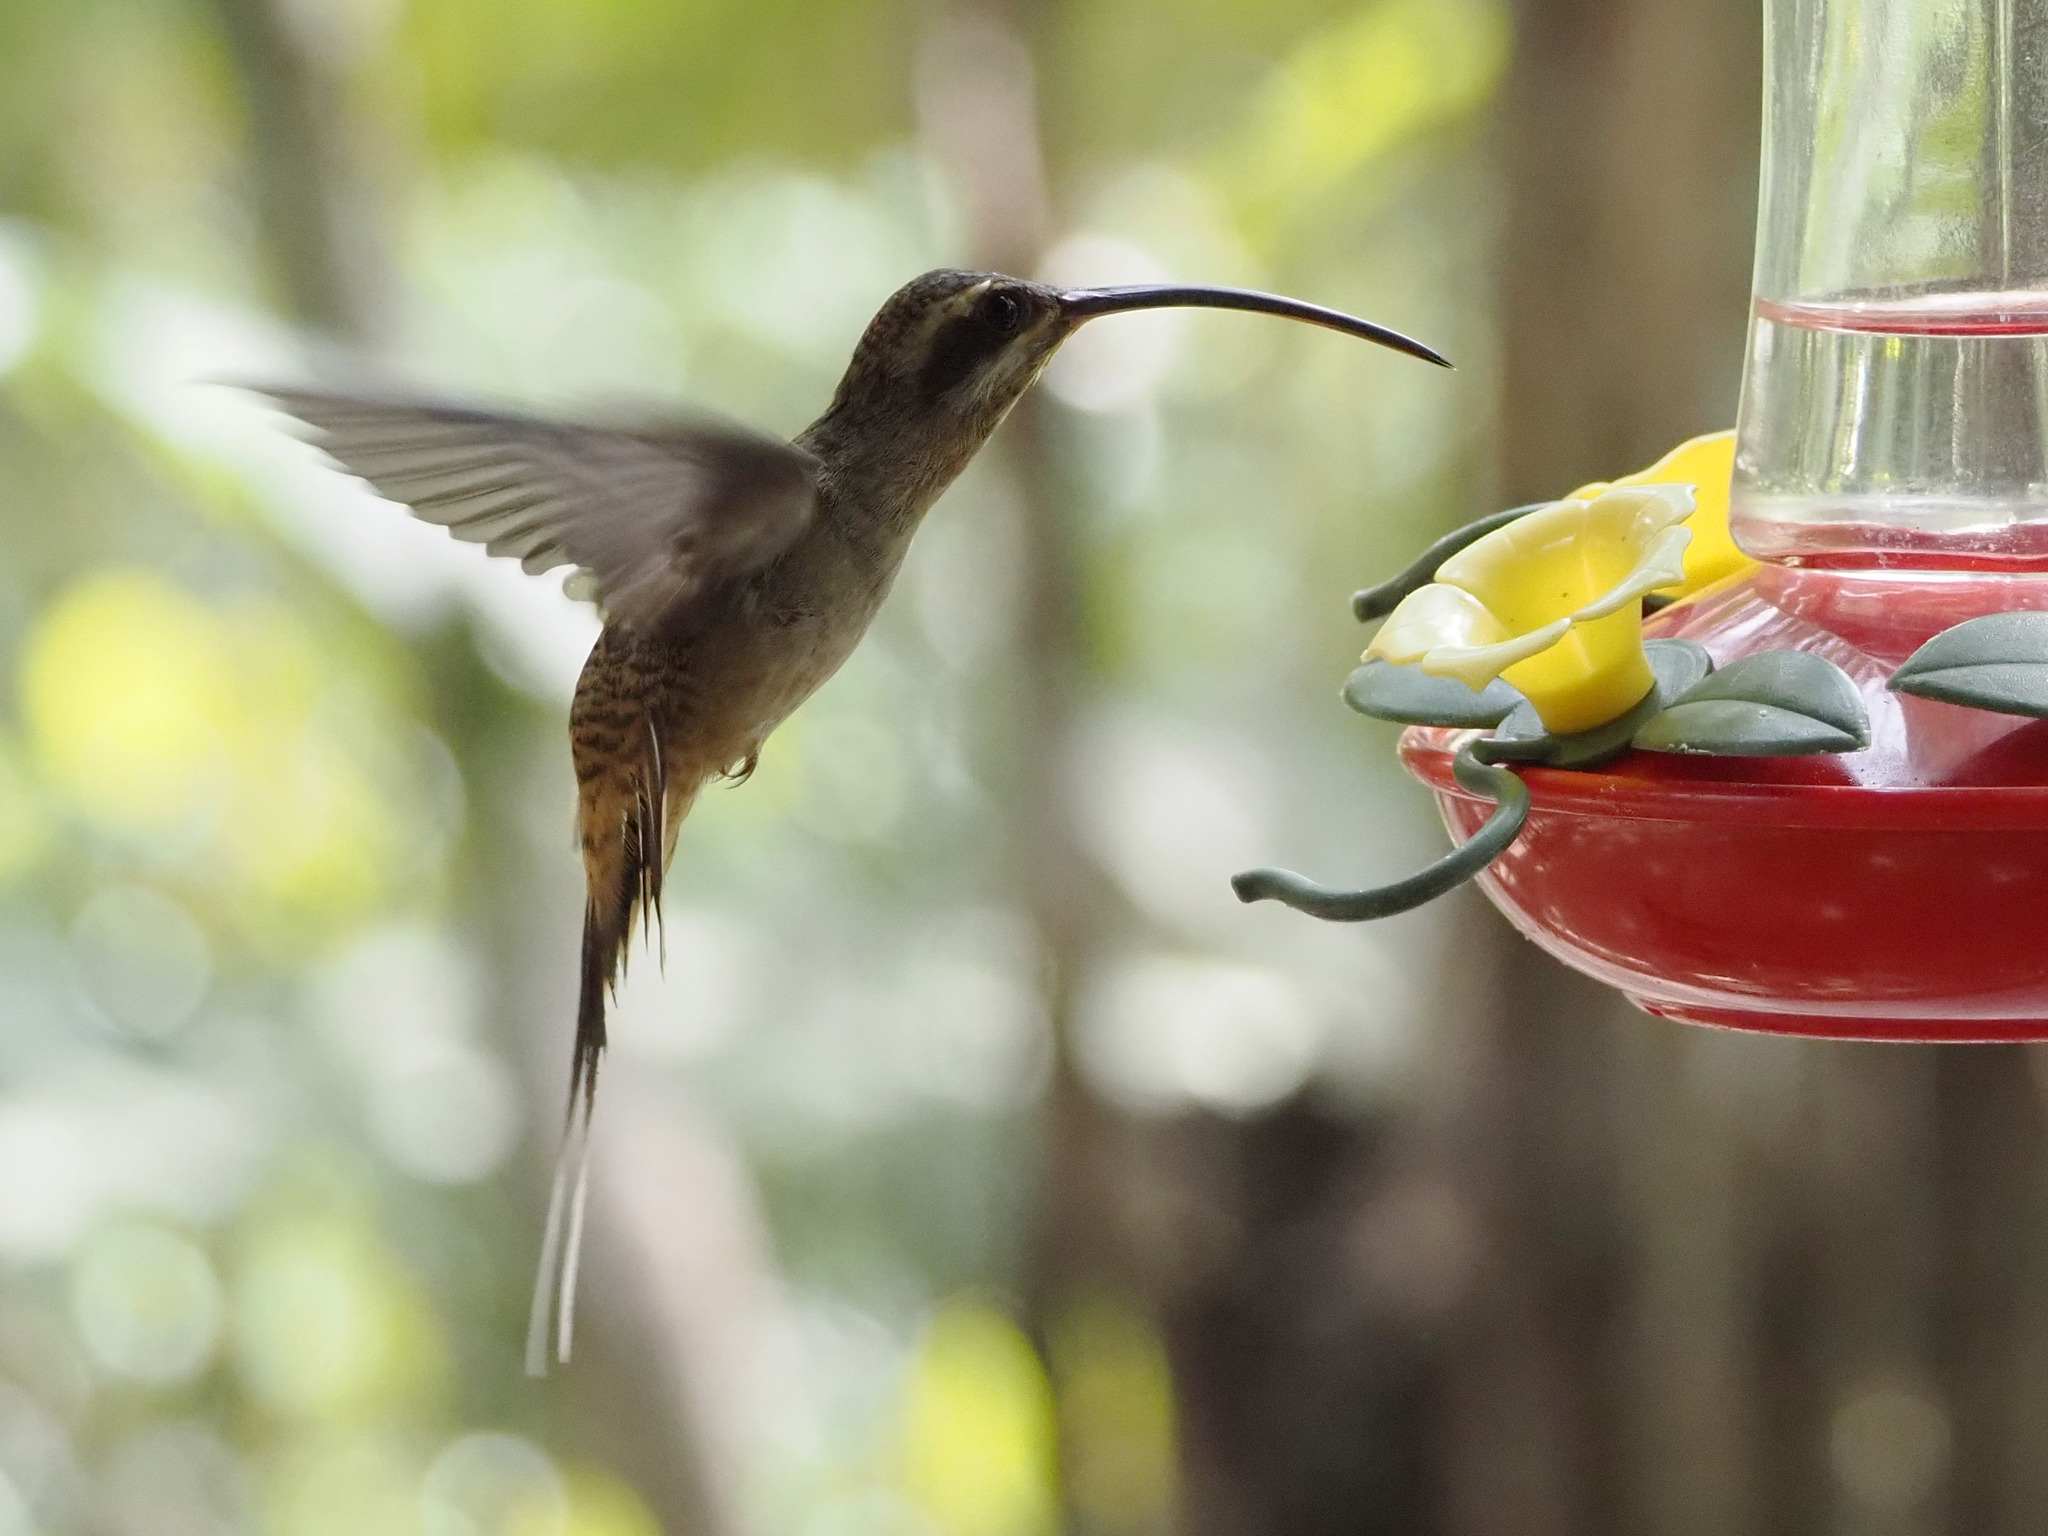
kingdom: Animalia
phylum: Chordata
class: Aves
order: Apodiformes
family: Trochilidae
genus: Phaethornis
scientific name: Phaethornis longirostris
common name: Long-billed hermit
